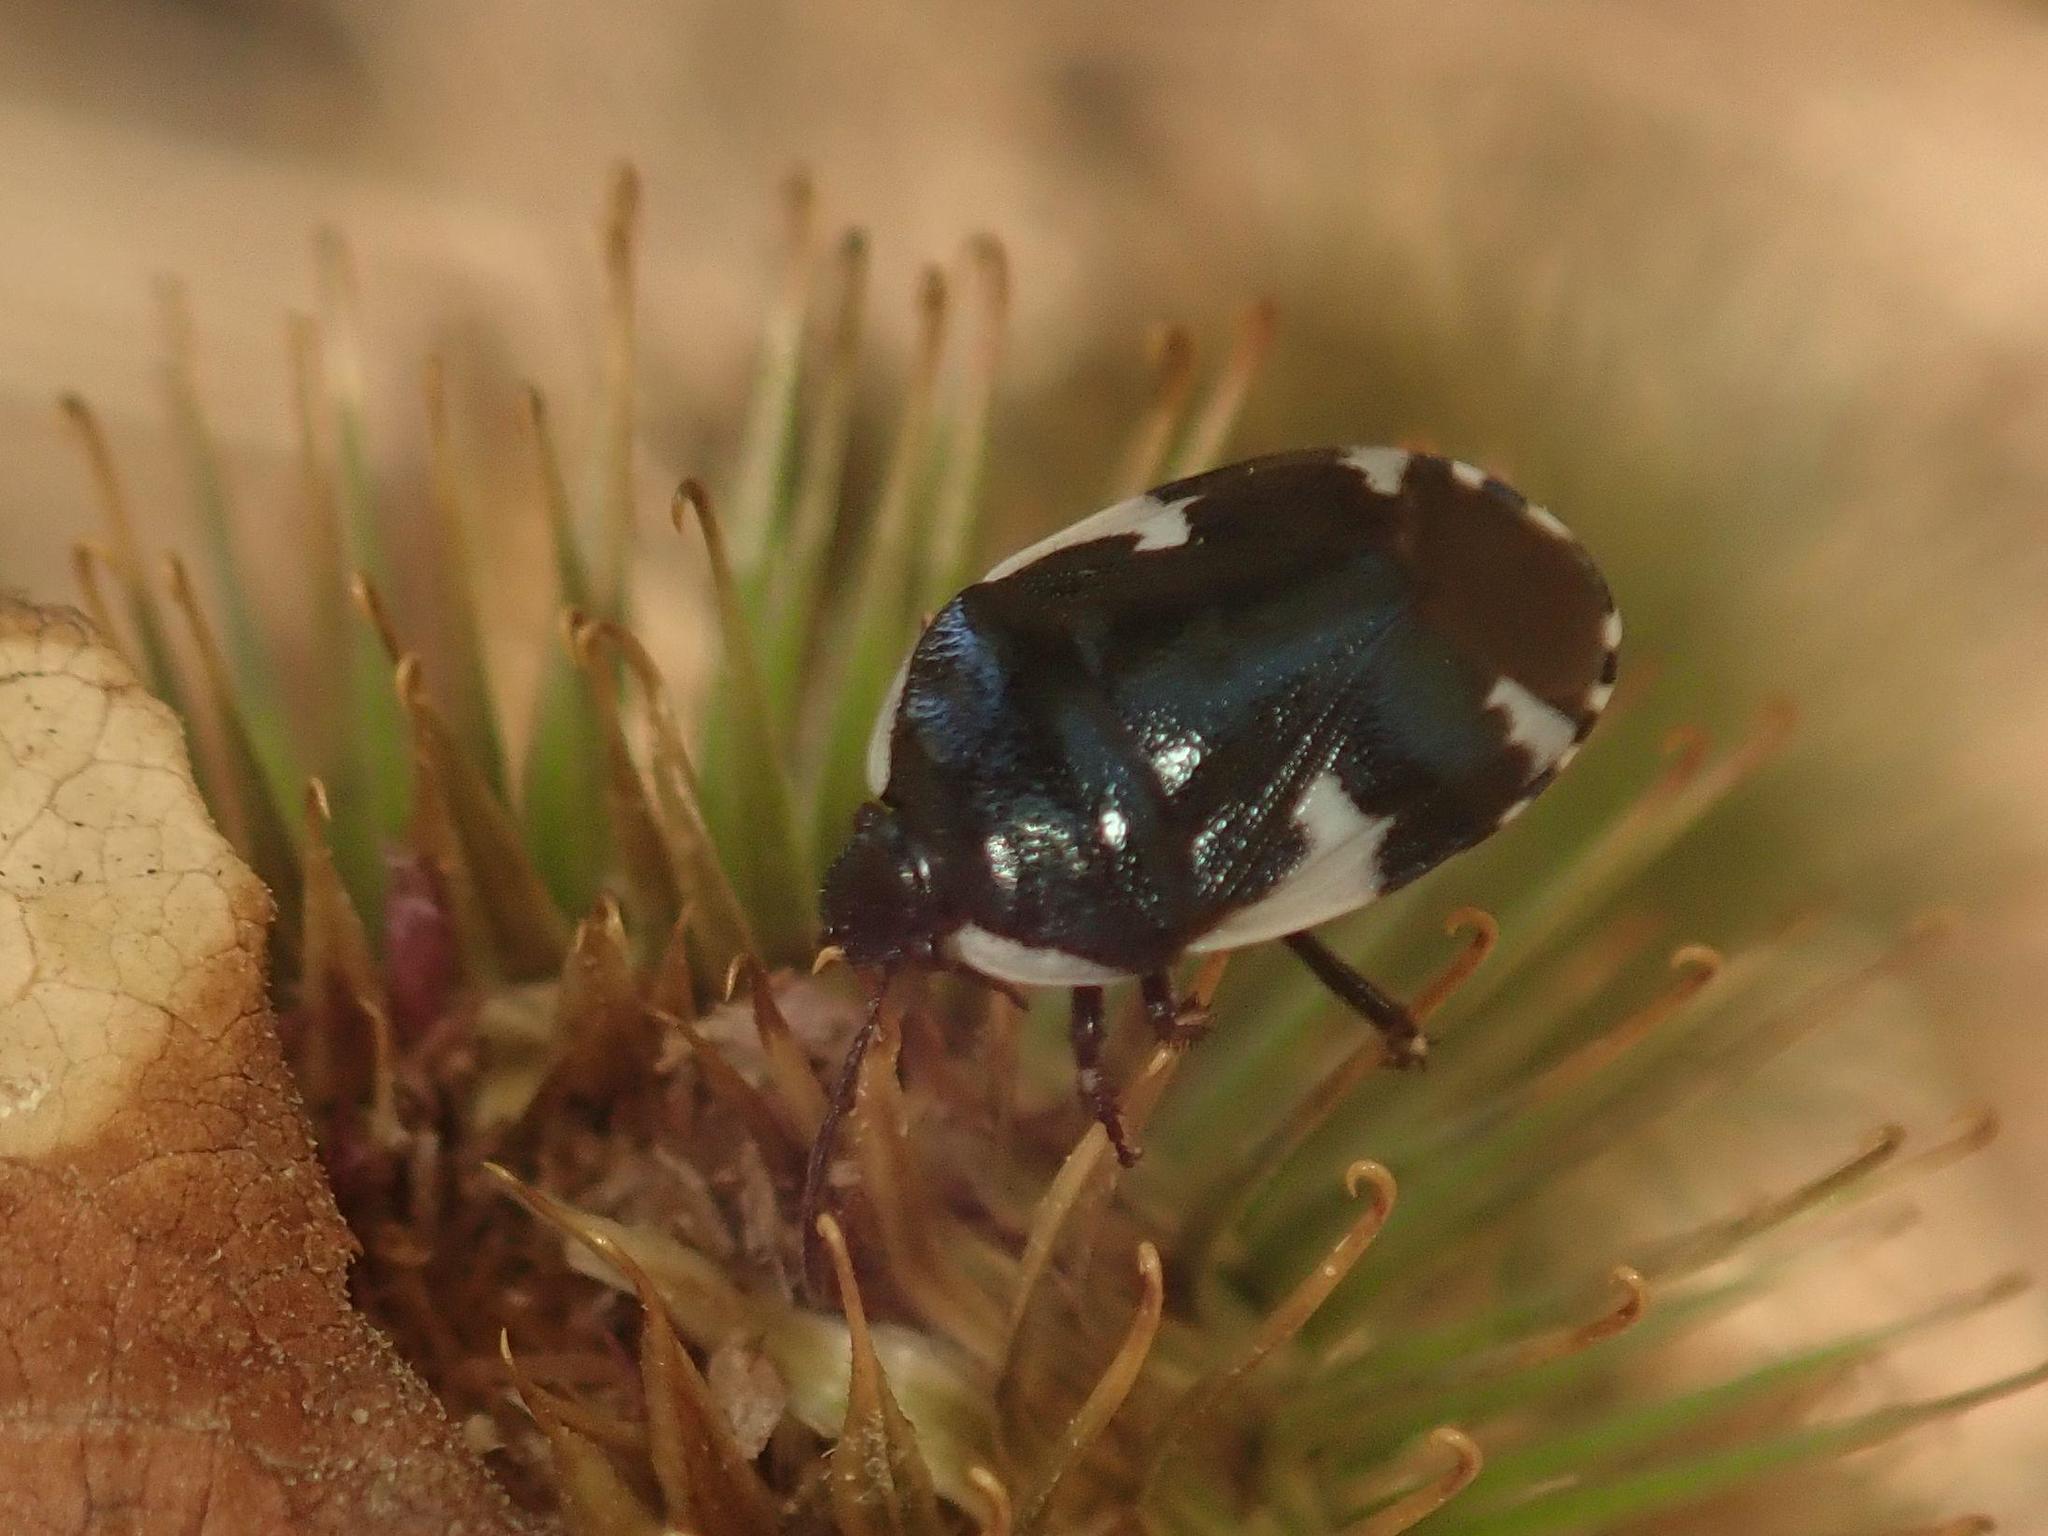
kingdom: Animalia
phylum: Arthropoda
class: Insecta
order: Hemiptera
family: Cydnidae
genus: Tritomegas
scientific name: Tritomegas sexmaculatus
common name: Rambur's pied shieldbug
